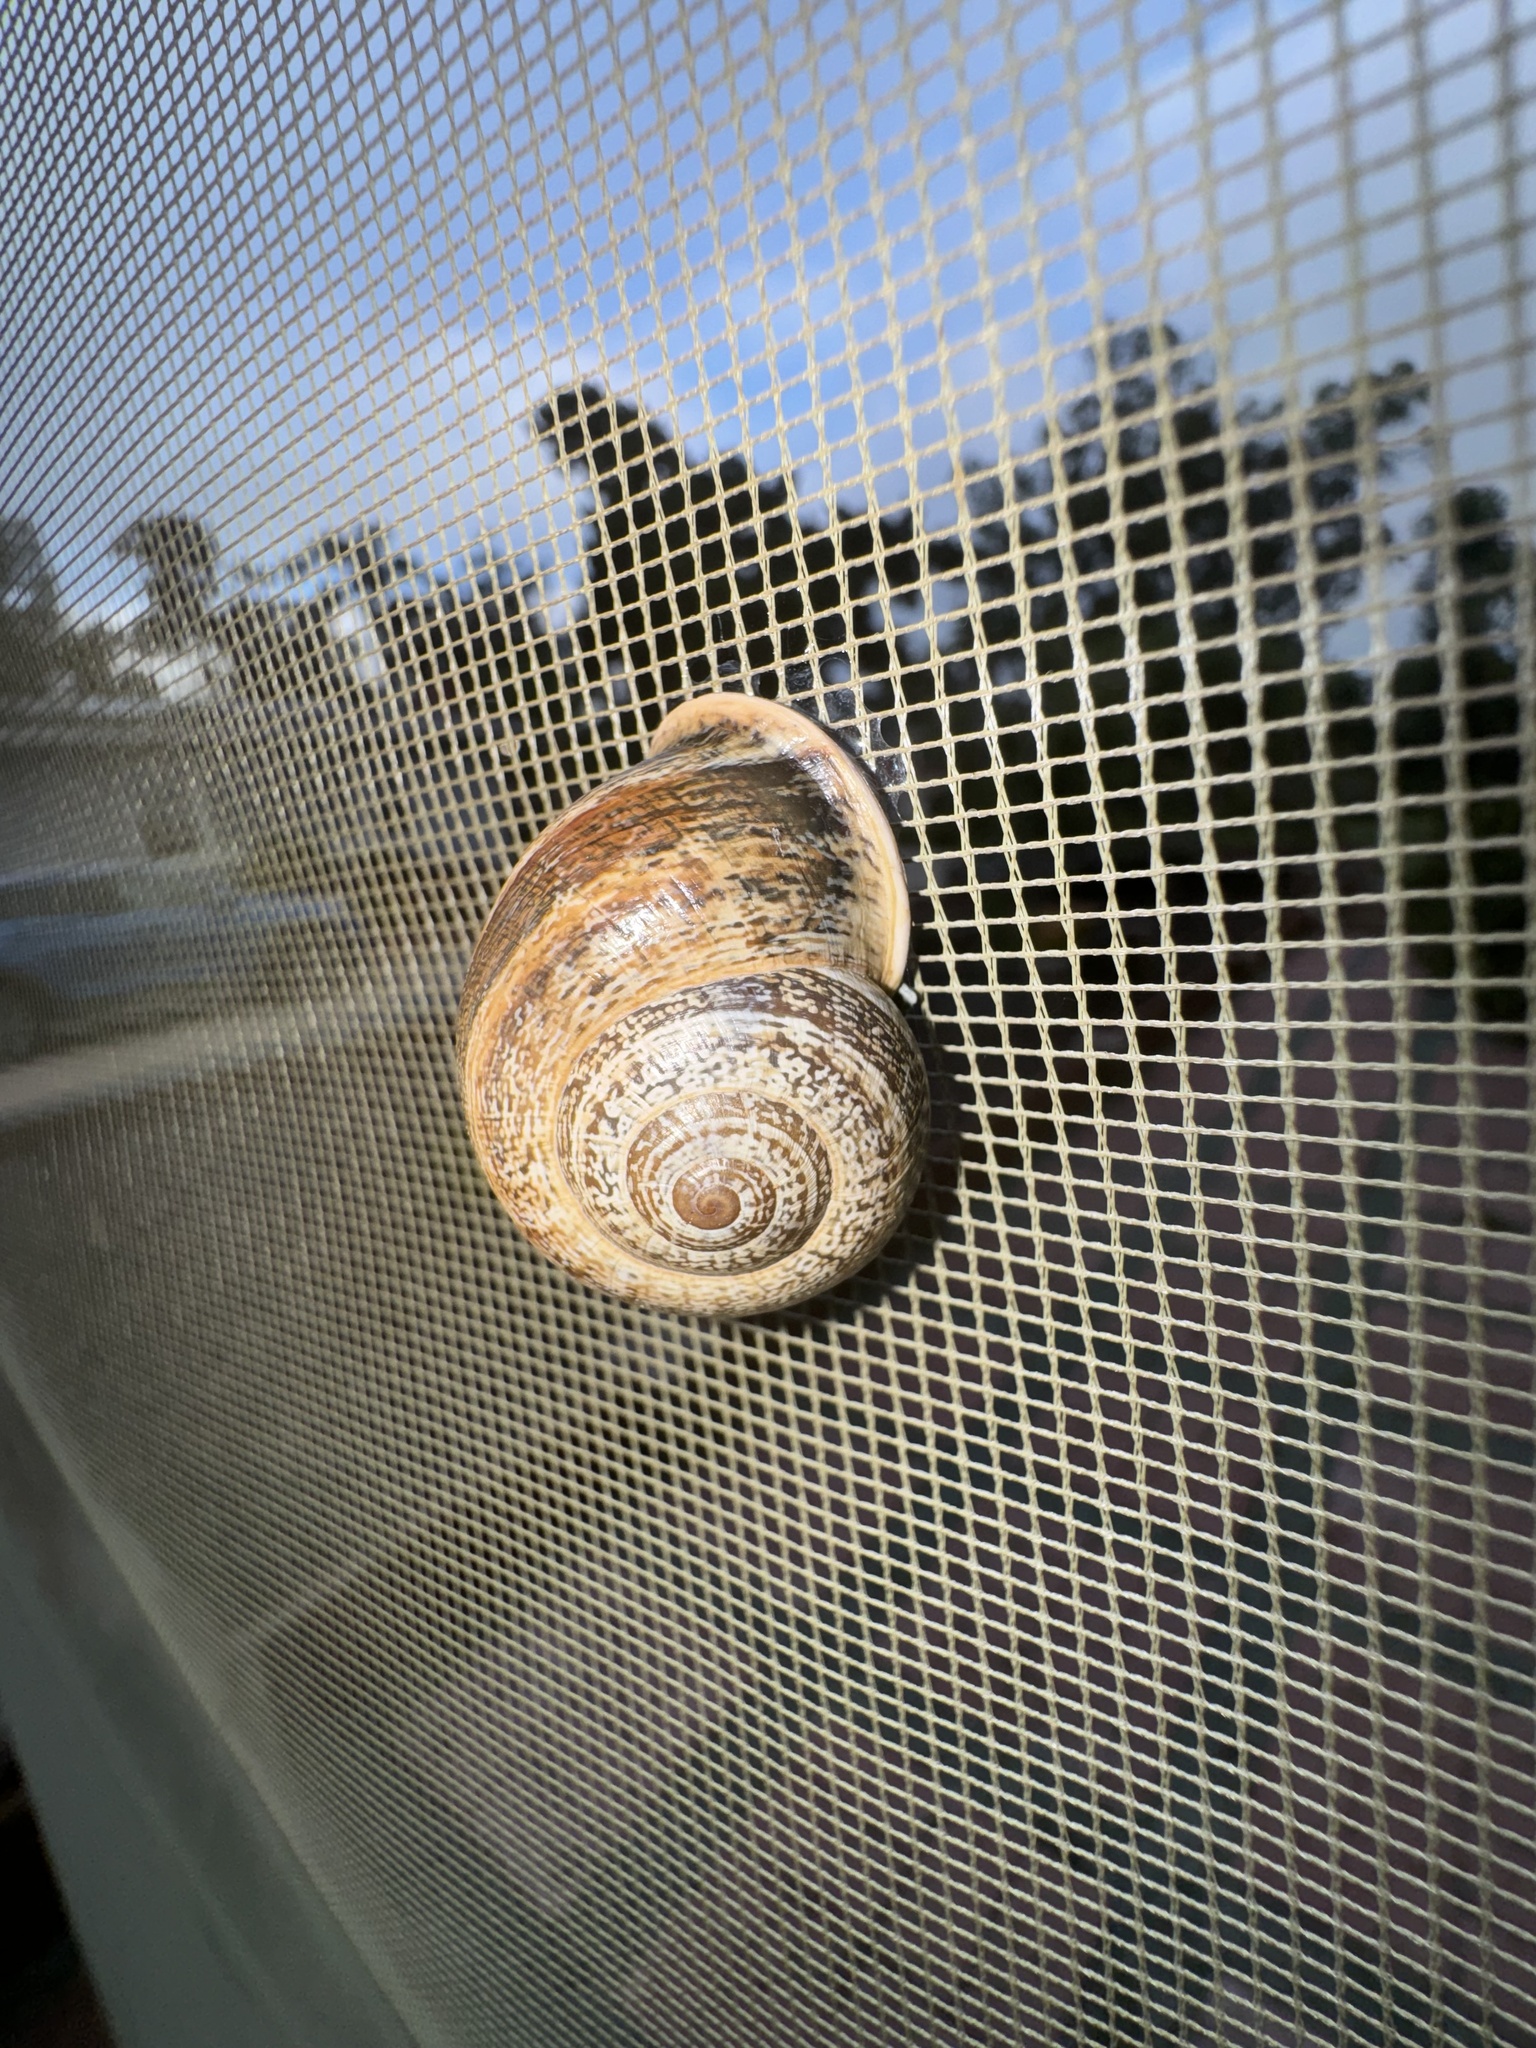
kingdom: Animalia
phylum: Mollusca
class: Gastropoda
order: Stylommatophora
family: Helicidae
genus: Otala
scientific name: Otala lactea
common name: Milk snail
